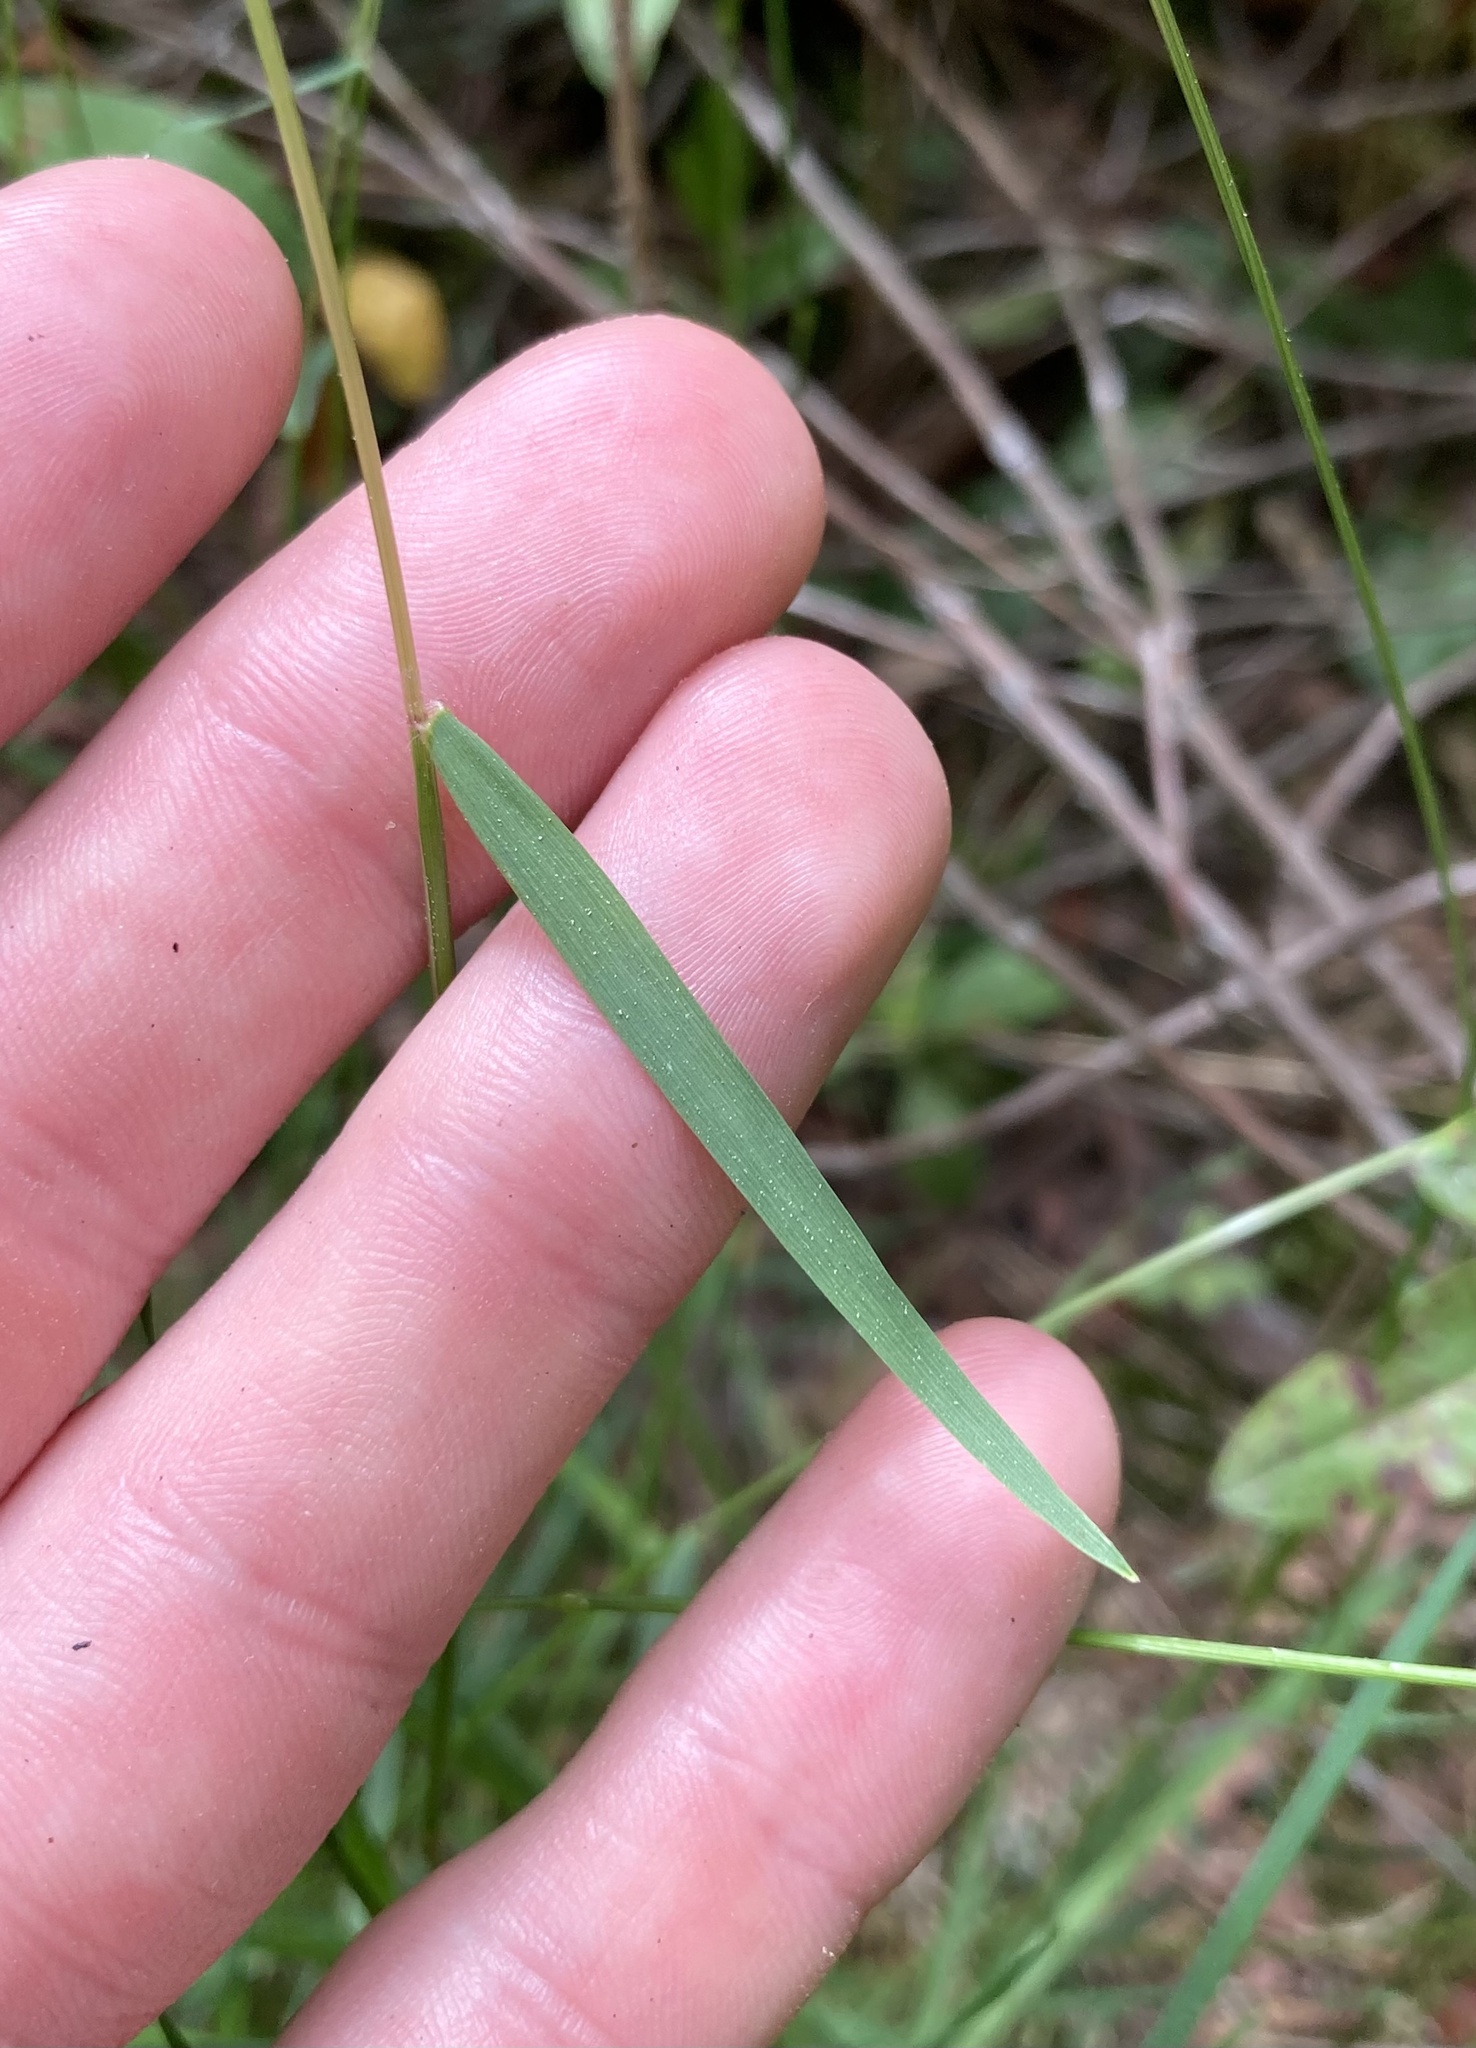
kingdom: Plantae
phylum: Tracheophyta
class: Liliopsida
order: Poales
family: Poaceae
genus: Anthoxanthum
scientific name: Anthoxanthum odoratum
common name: Sweet vernalgrass
